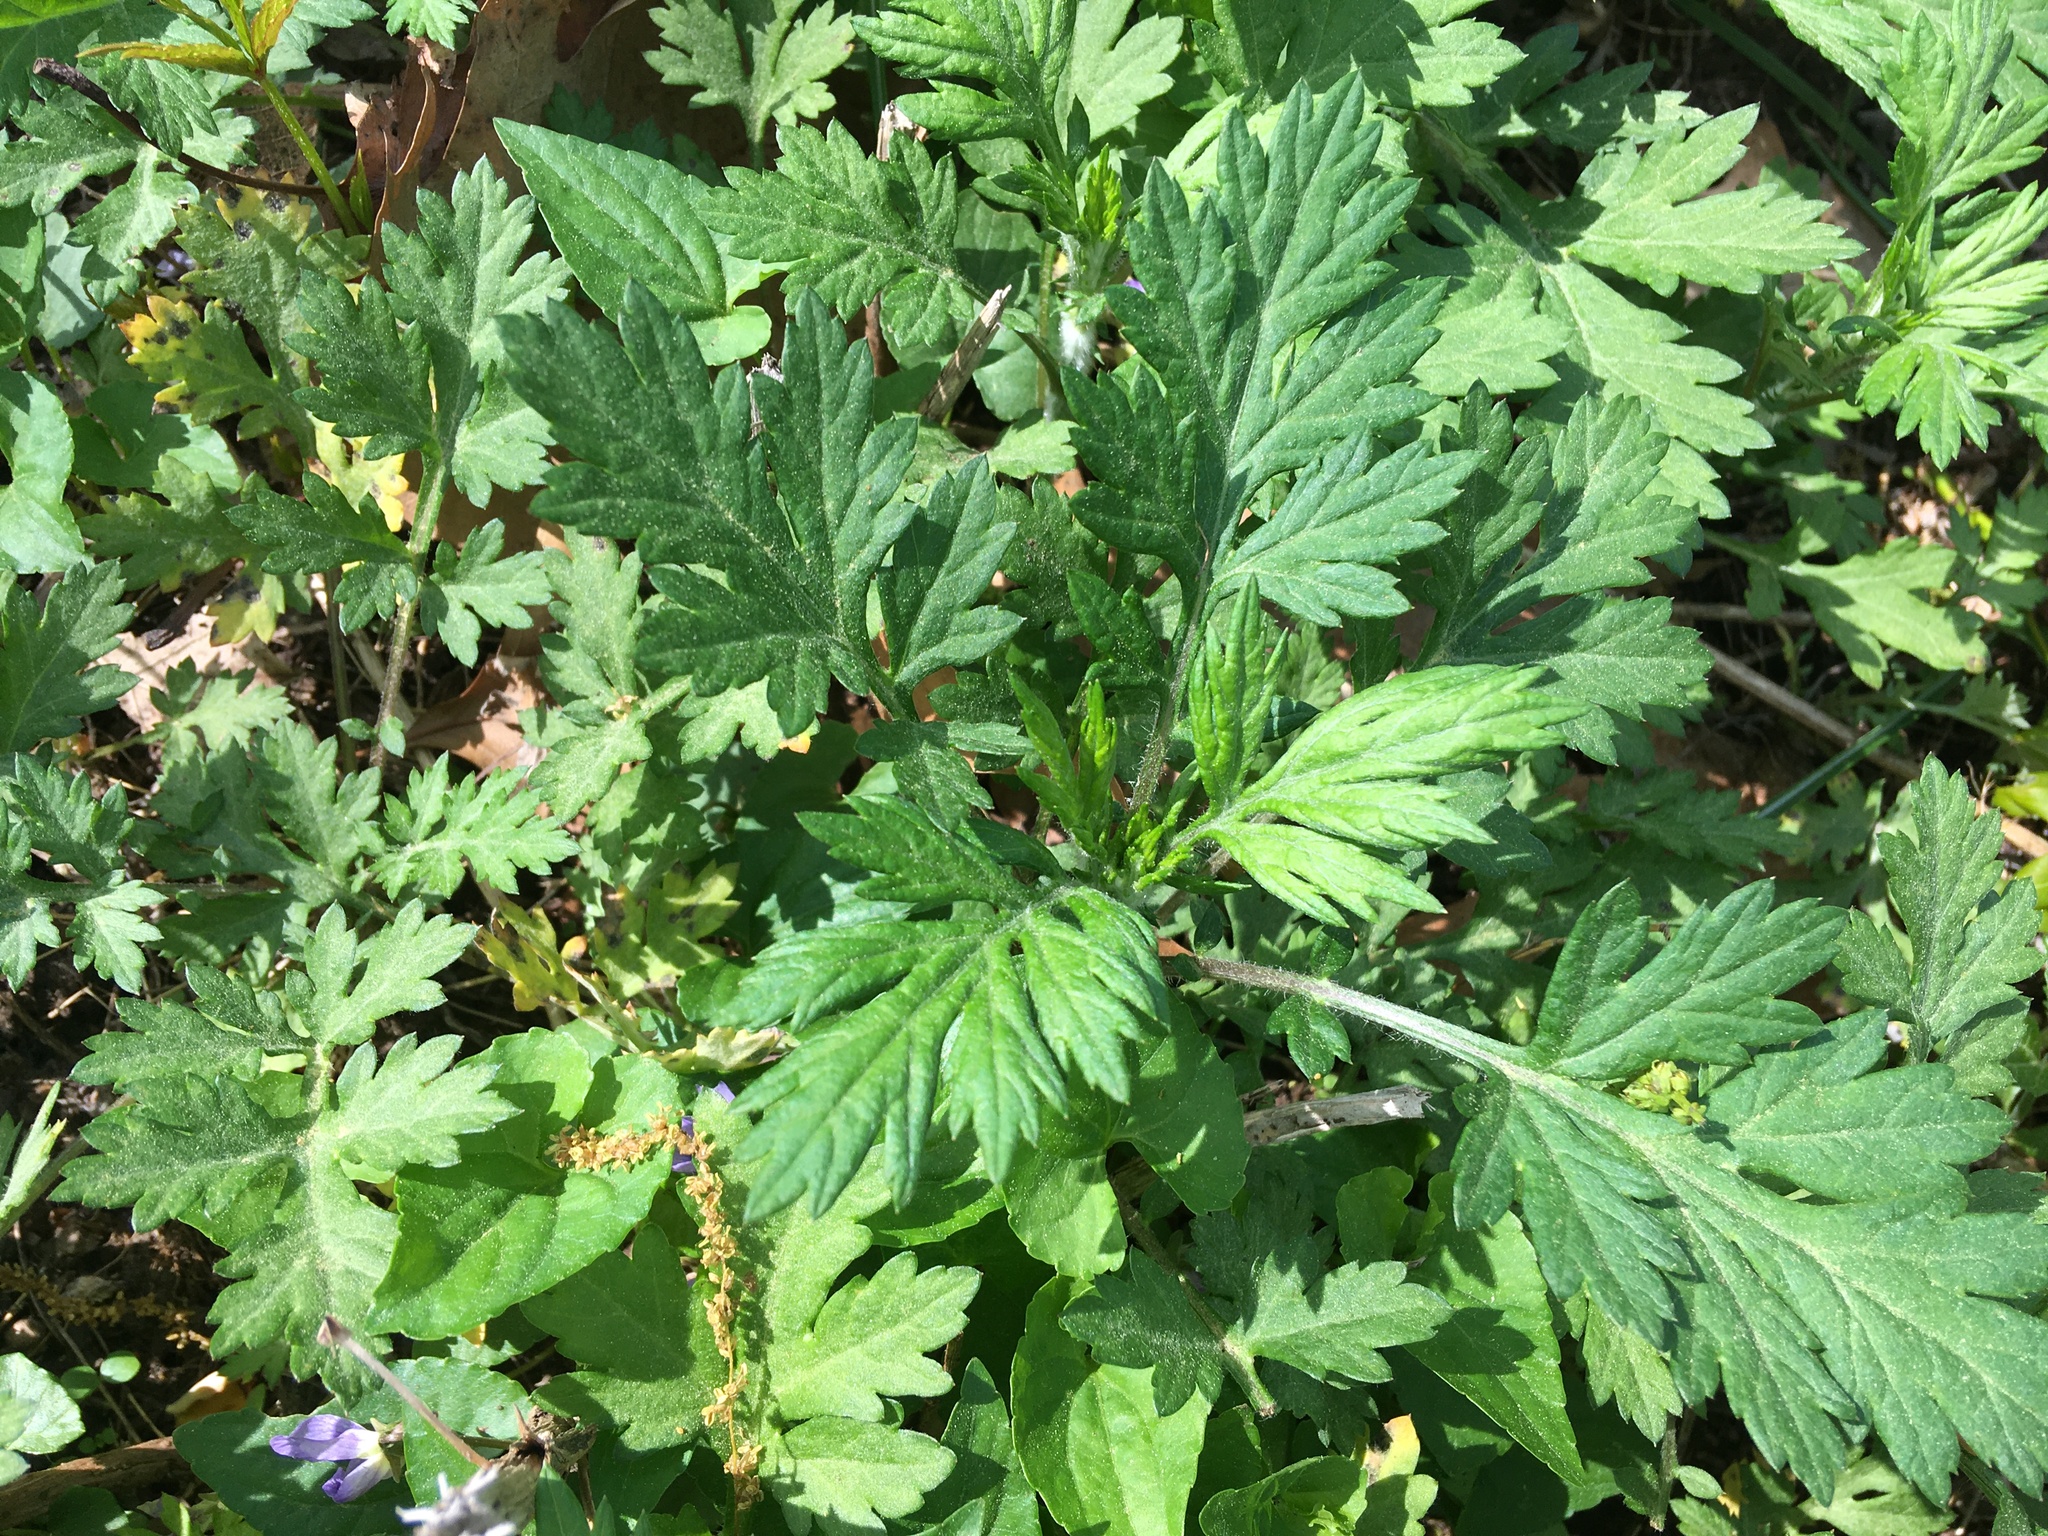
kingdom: Plantae
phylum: Tracheophyta
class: Magnoliopsida
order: Asterales
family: Asteraceae
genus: Artemisia
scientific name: Artemisia vulgaris
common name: Mugwort
